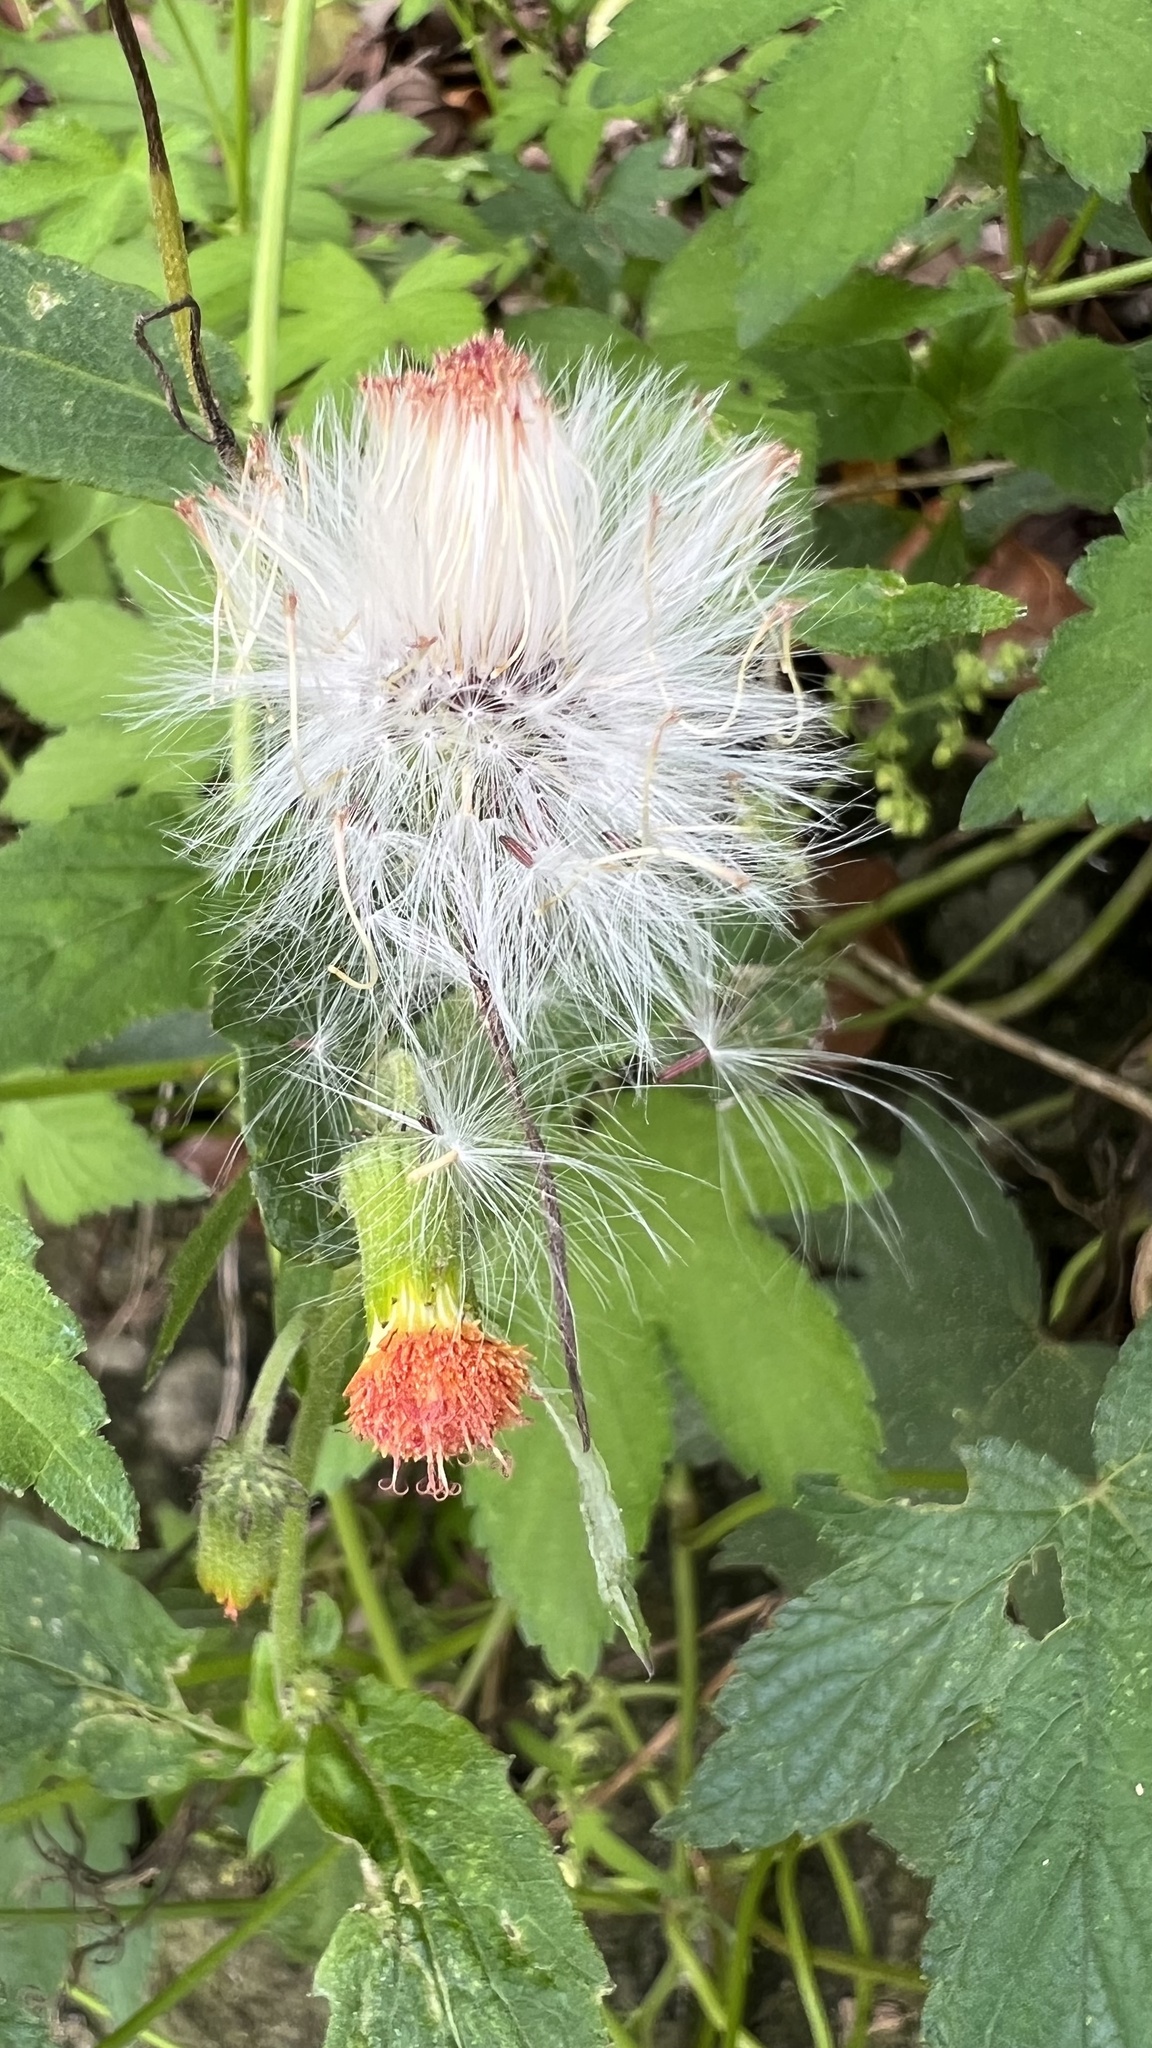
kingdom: Plantae
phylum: Tracheophyta
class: Magnoliopsida
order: Asterales
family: Asteraceae
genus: Crassocephalum
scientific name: Crassocephalum crepidioides
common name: Redflower ragleaf
